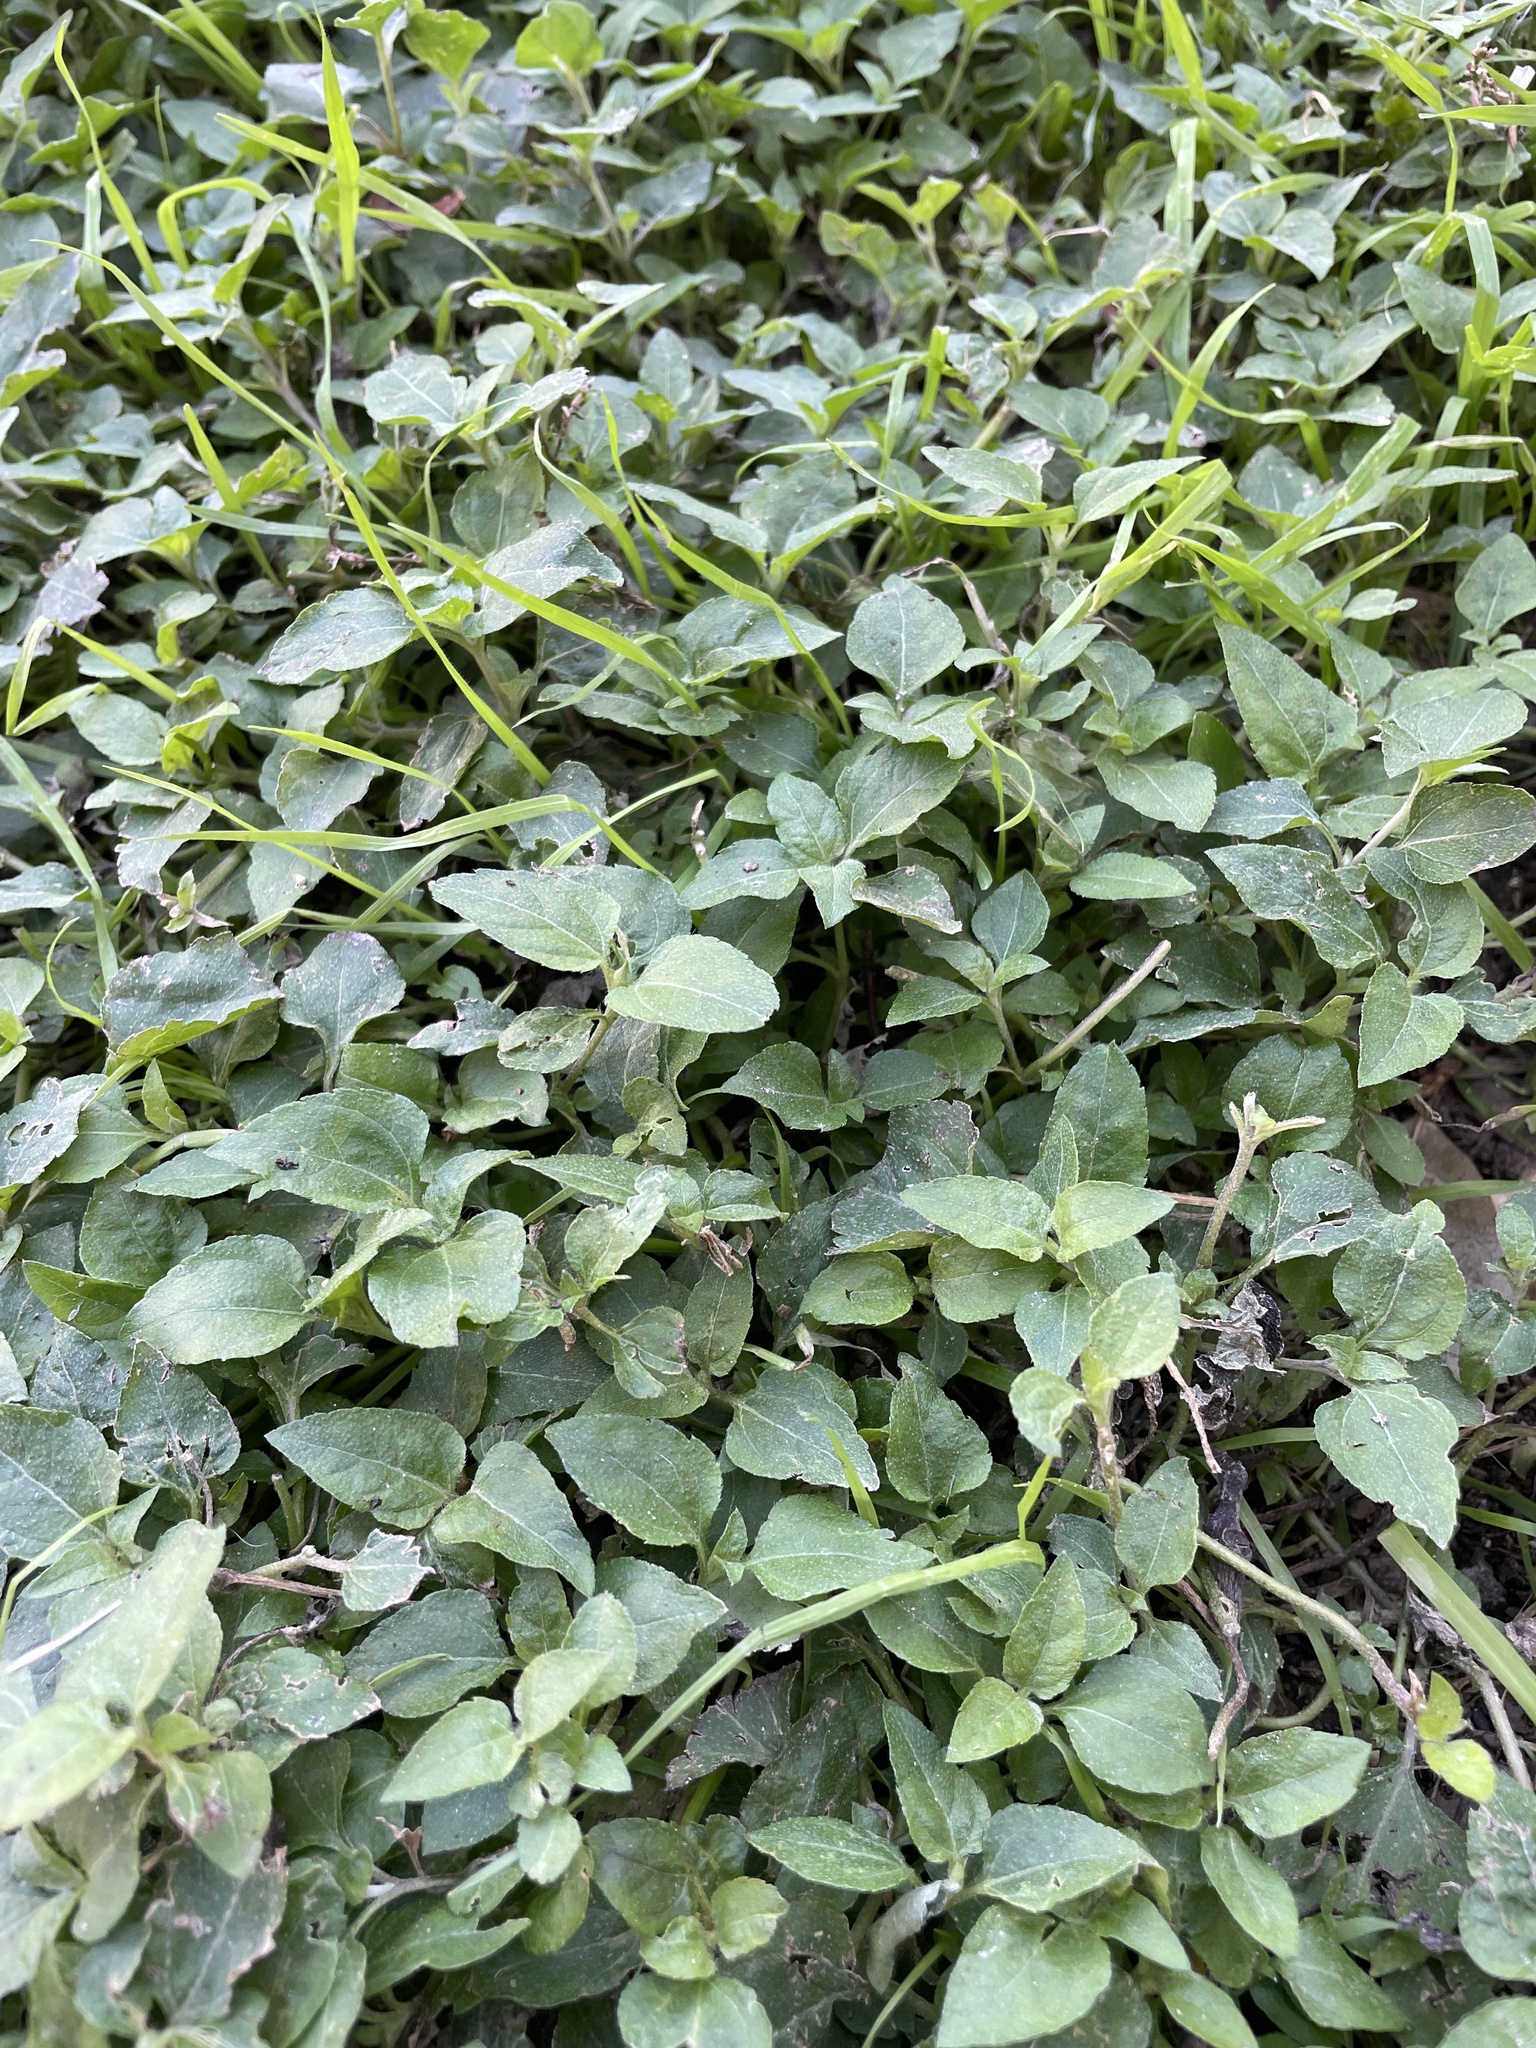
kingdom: Plantae
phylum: Tracheophyta
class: Magnoliopsida
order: Asterales
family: Asteraceae
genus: Calyptocarpus
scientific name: Calyptocarpus vialis
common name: Straggler daisy
